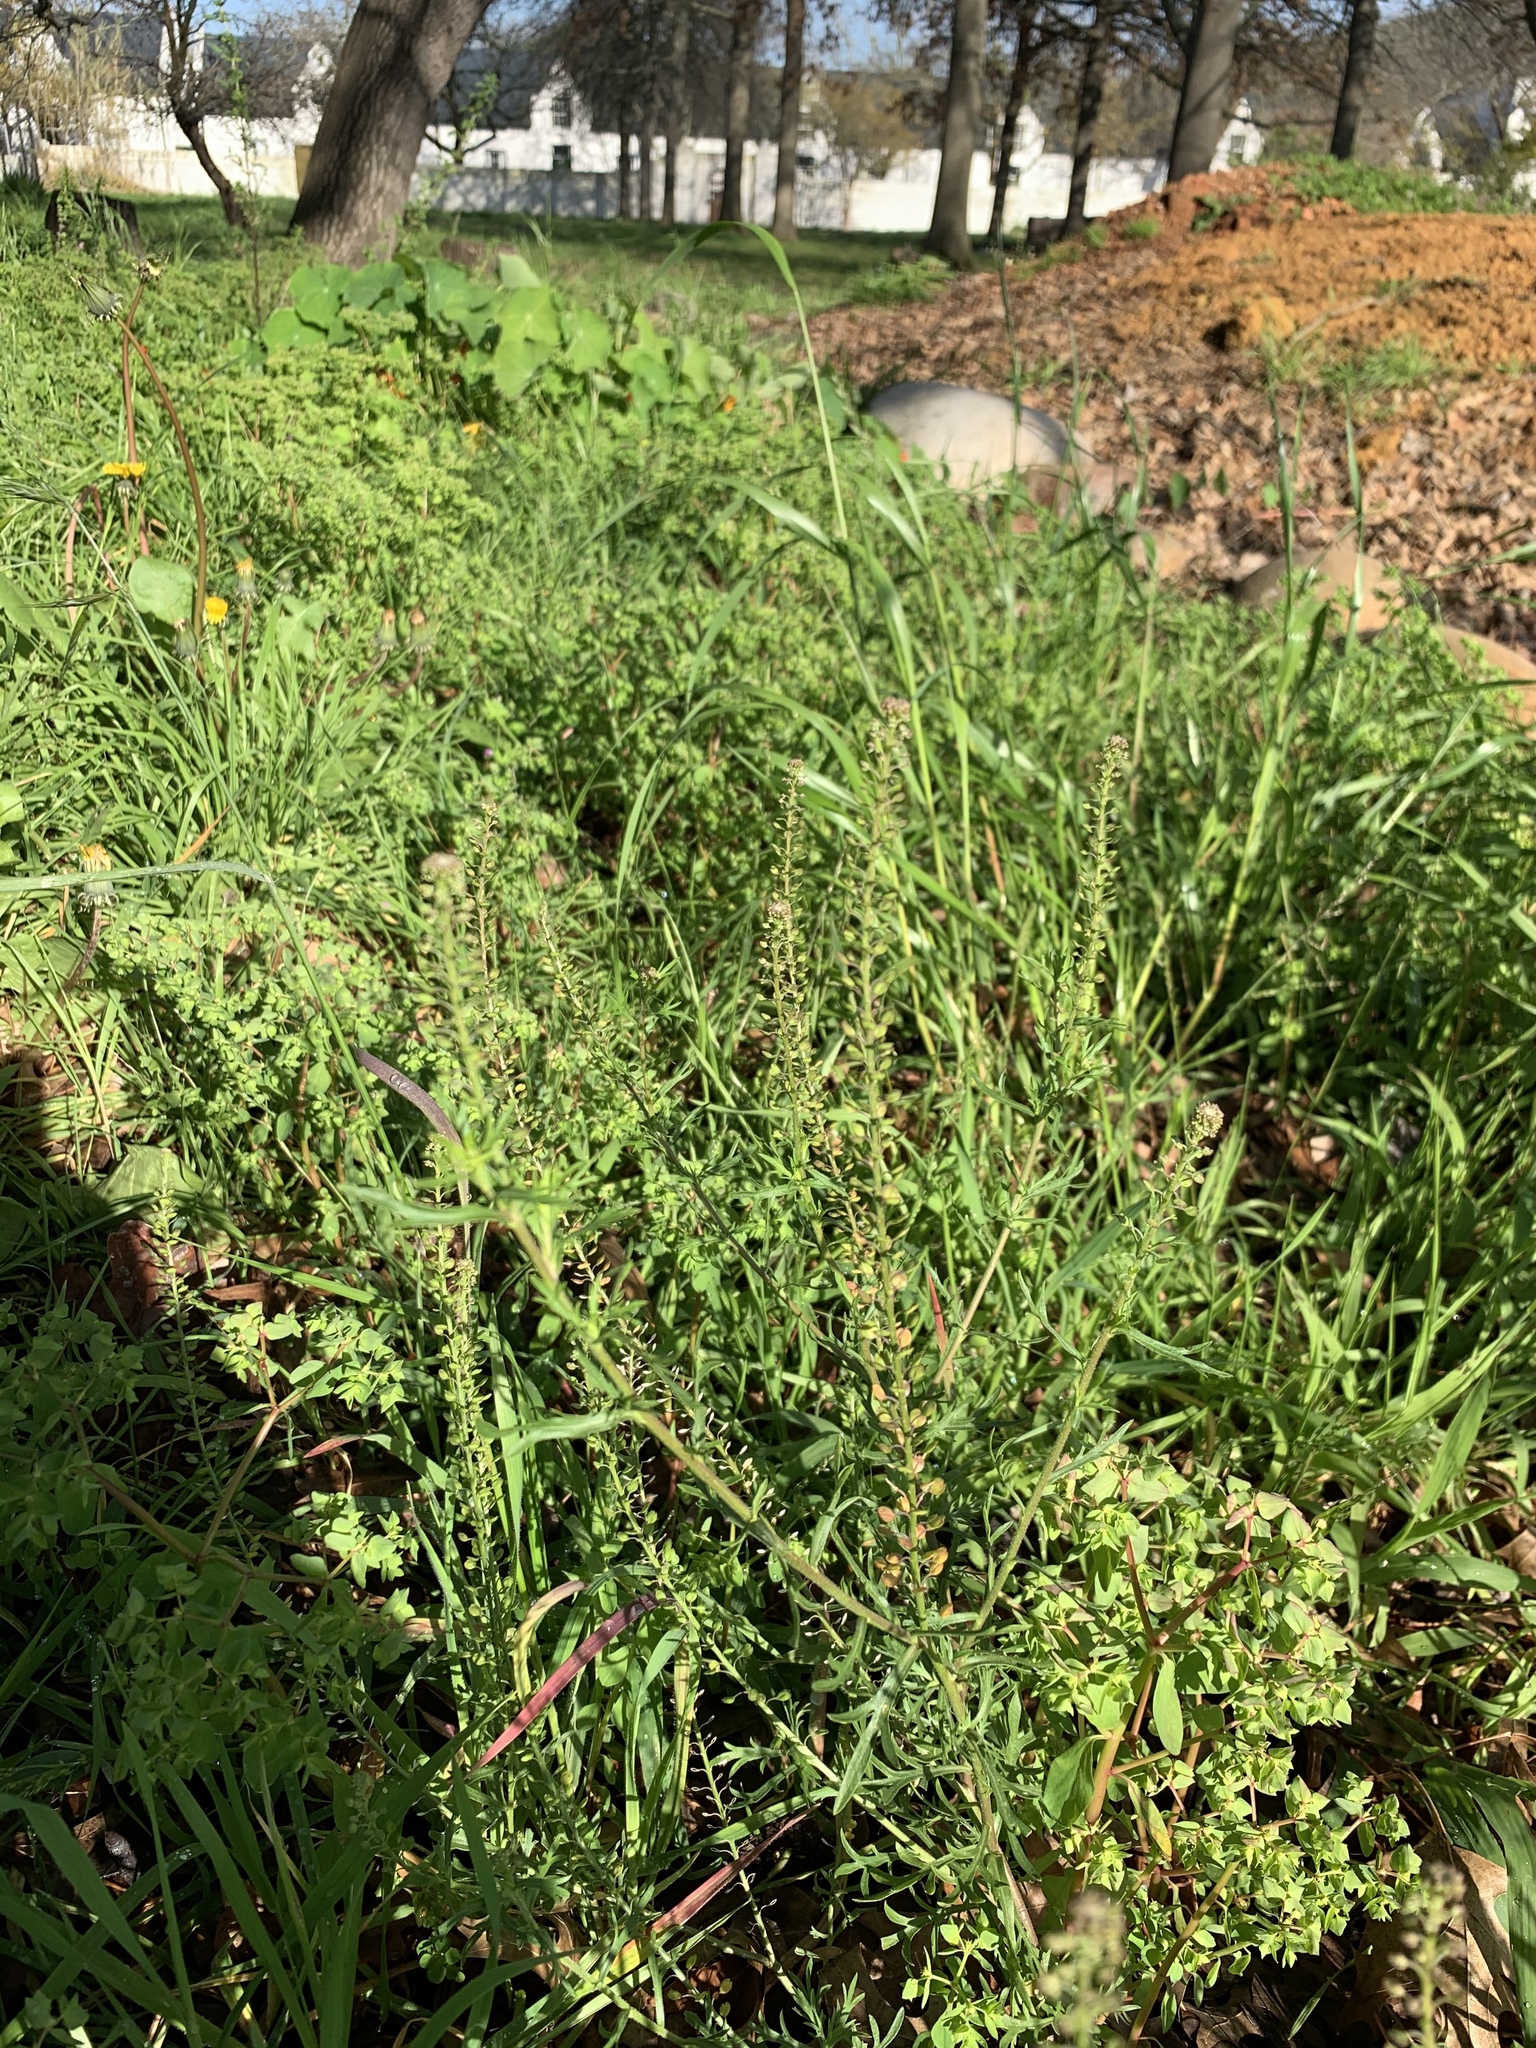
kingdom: Plantae
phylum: Tracheophyta
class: Magnoliopsida
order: Brassicales
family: Brassicaceae
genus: Lepidium
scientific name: Lepidium bonariense
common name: Argentine pepperwort
